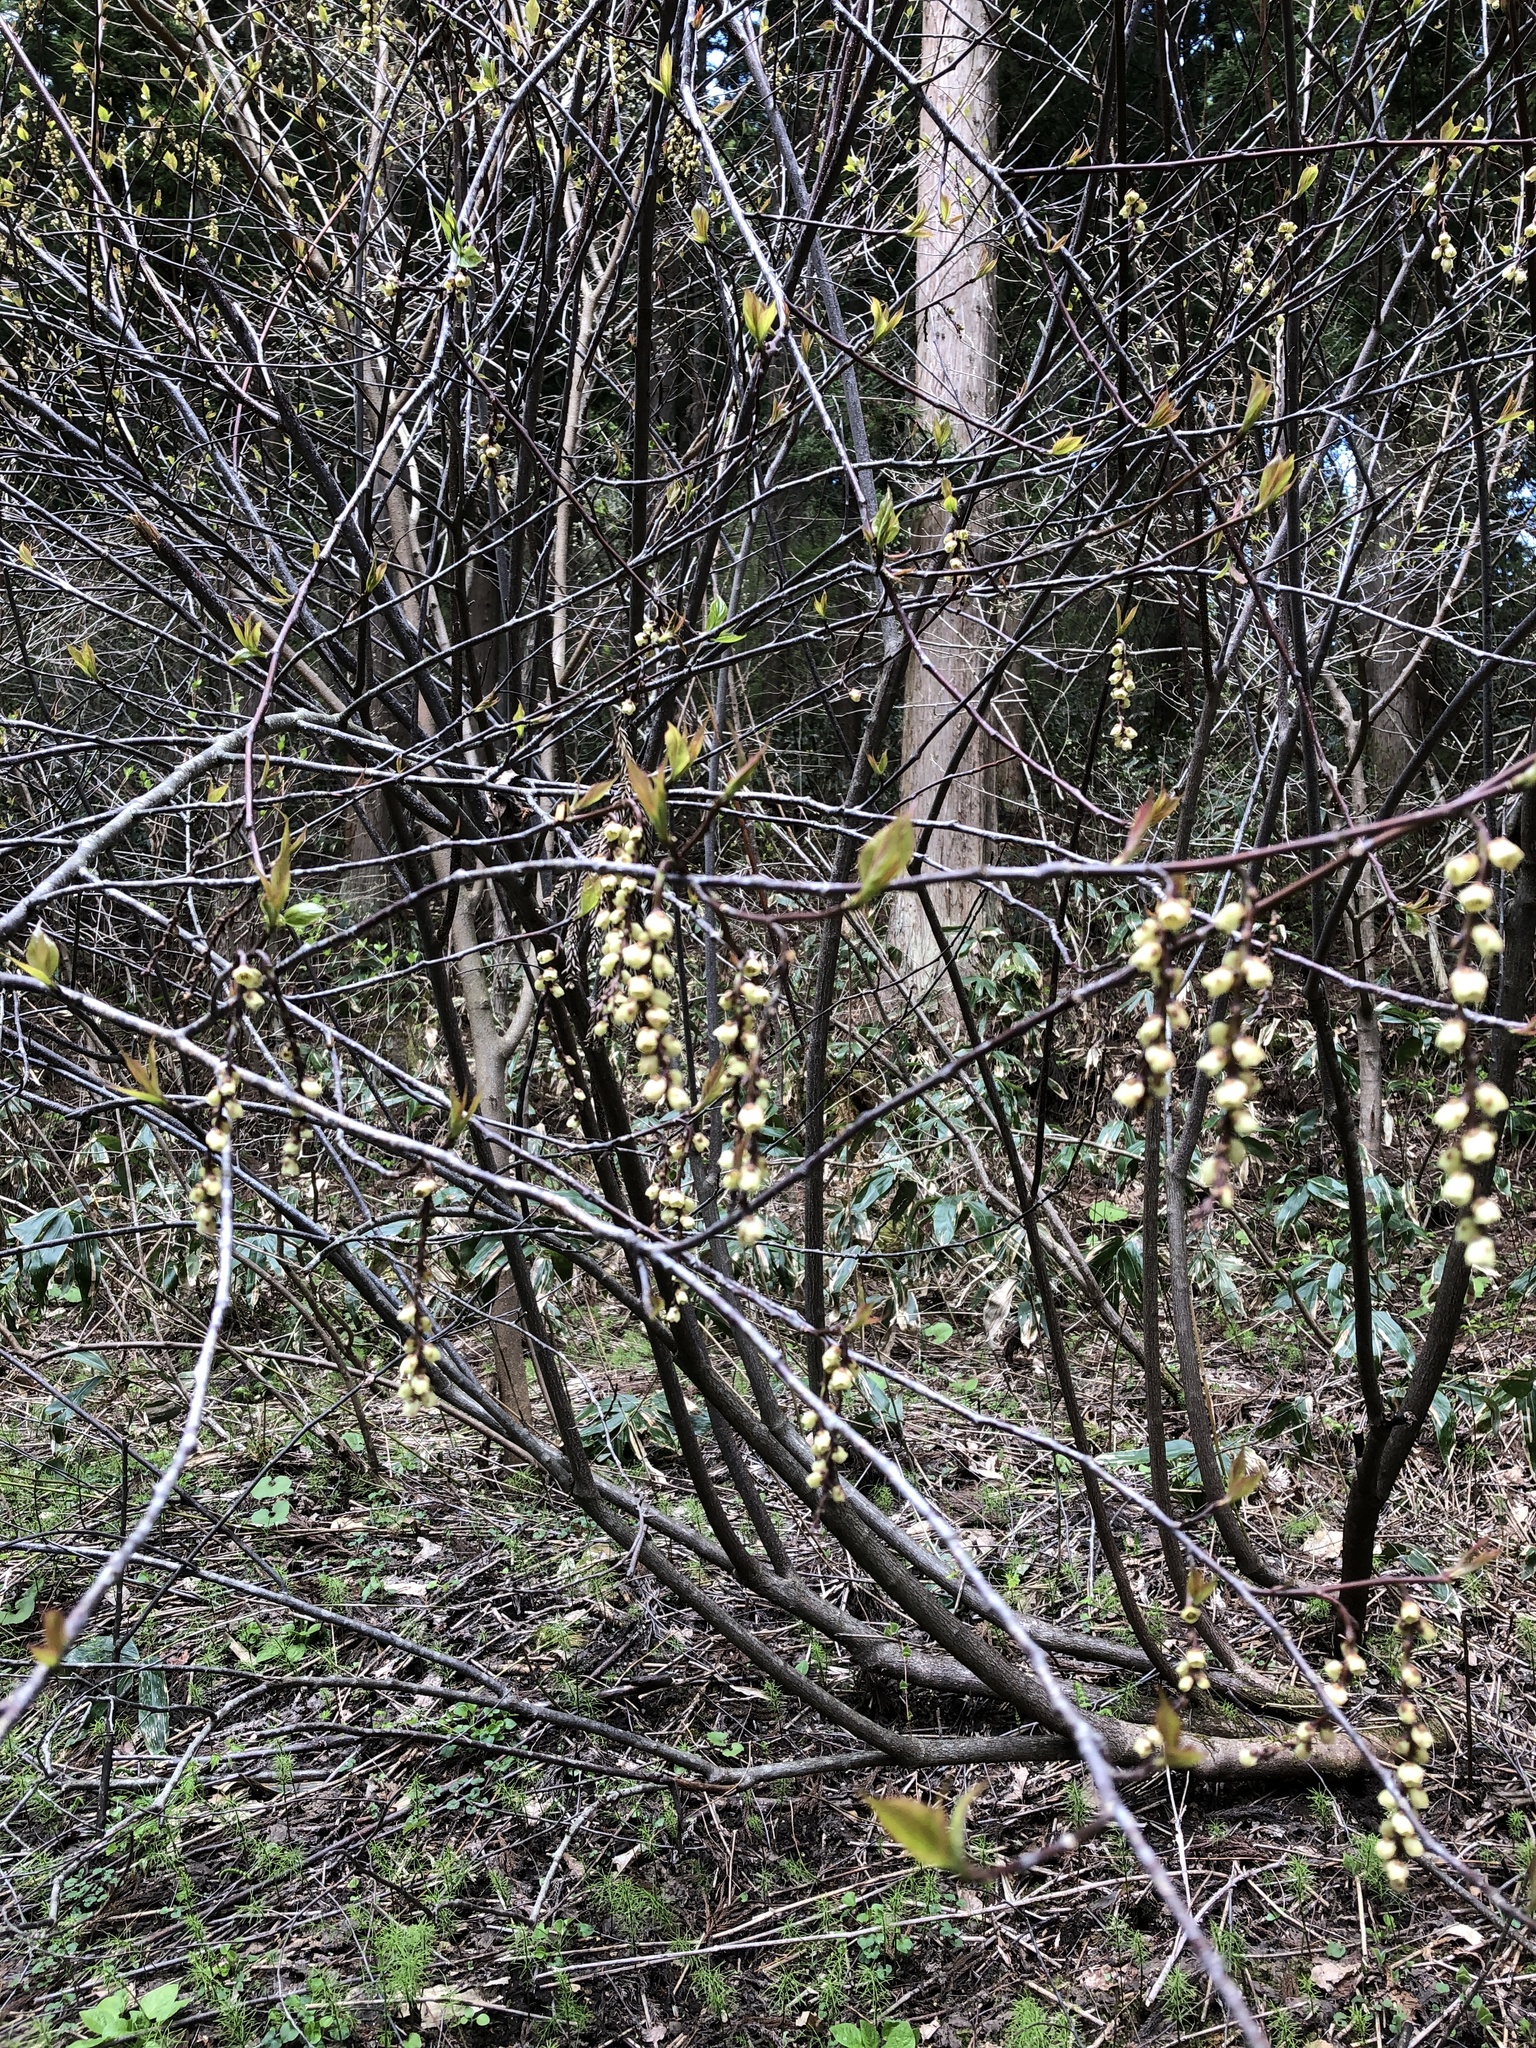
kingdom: Plantae
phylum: Tracheophyta
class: Magnoliopsida
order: Crossosomatales
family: Stachyuraceae
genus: Stachyurus
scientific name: Stachyurus praecox
